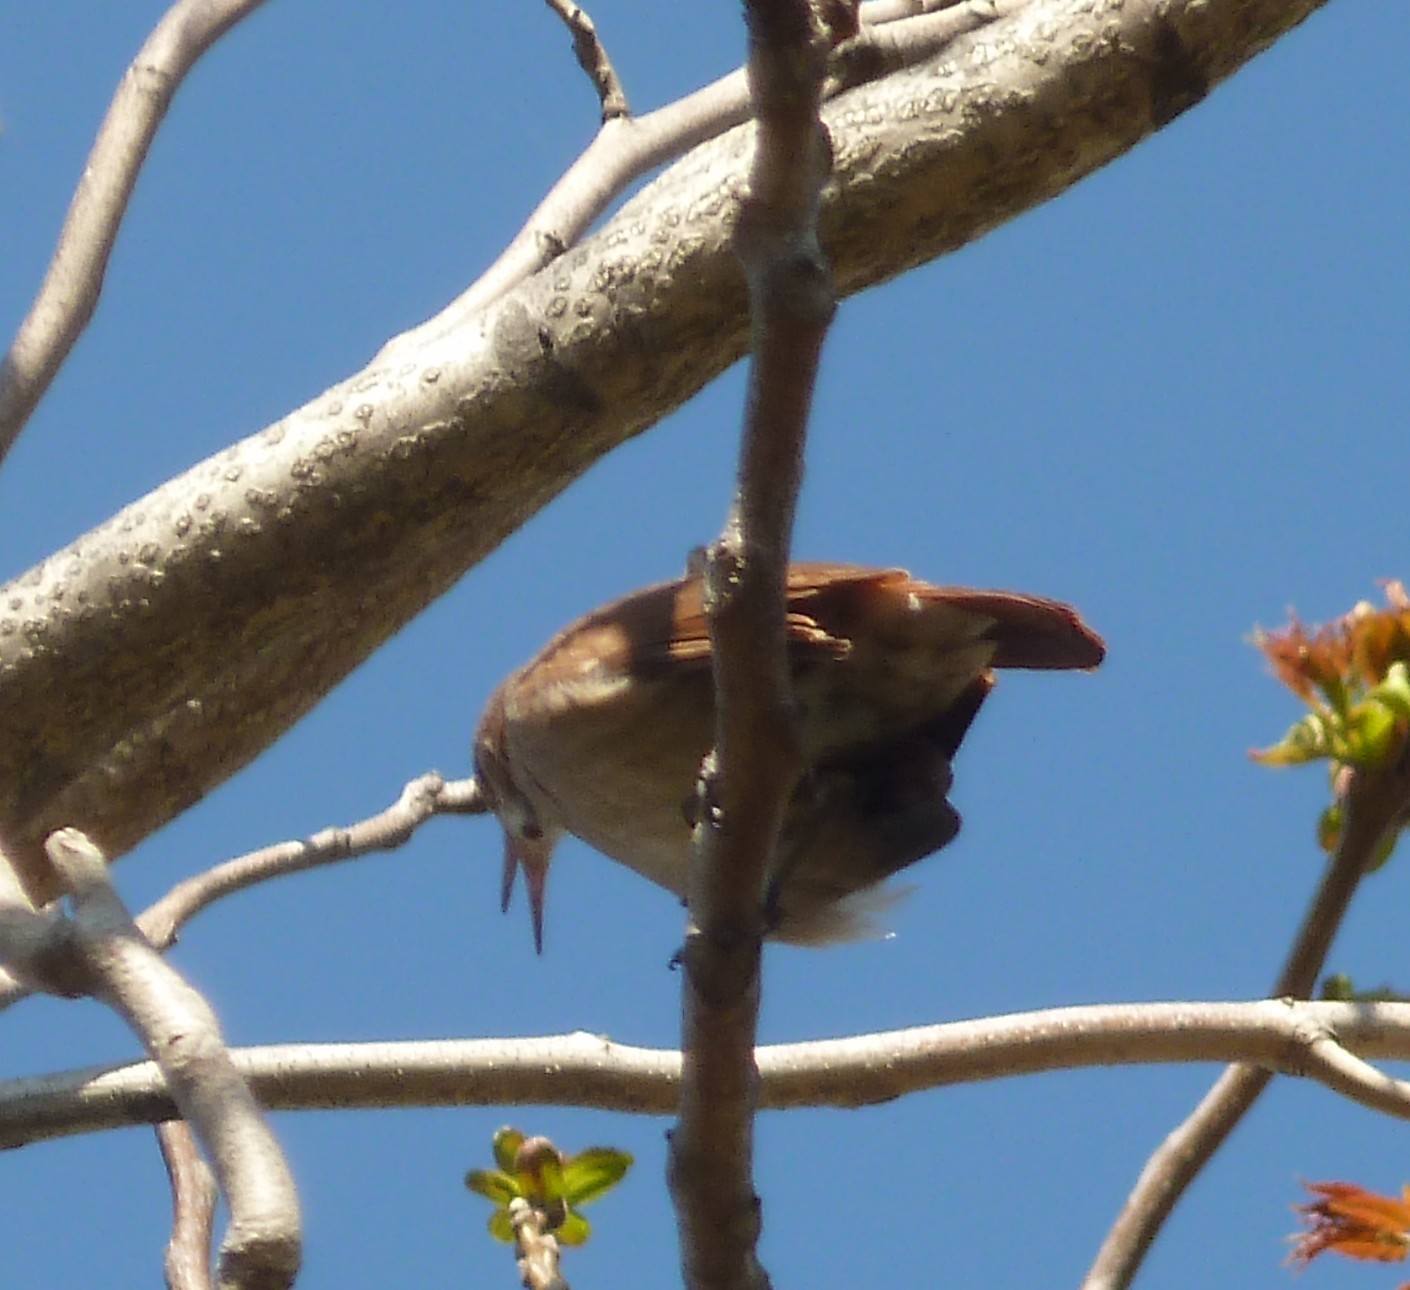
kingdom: Animalia
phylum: Chordata
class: Aves
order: Passeriformes
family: Furnariidae
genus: Furnarius
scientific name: Furnarius rufus
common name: Rufous hornero
